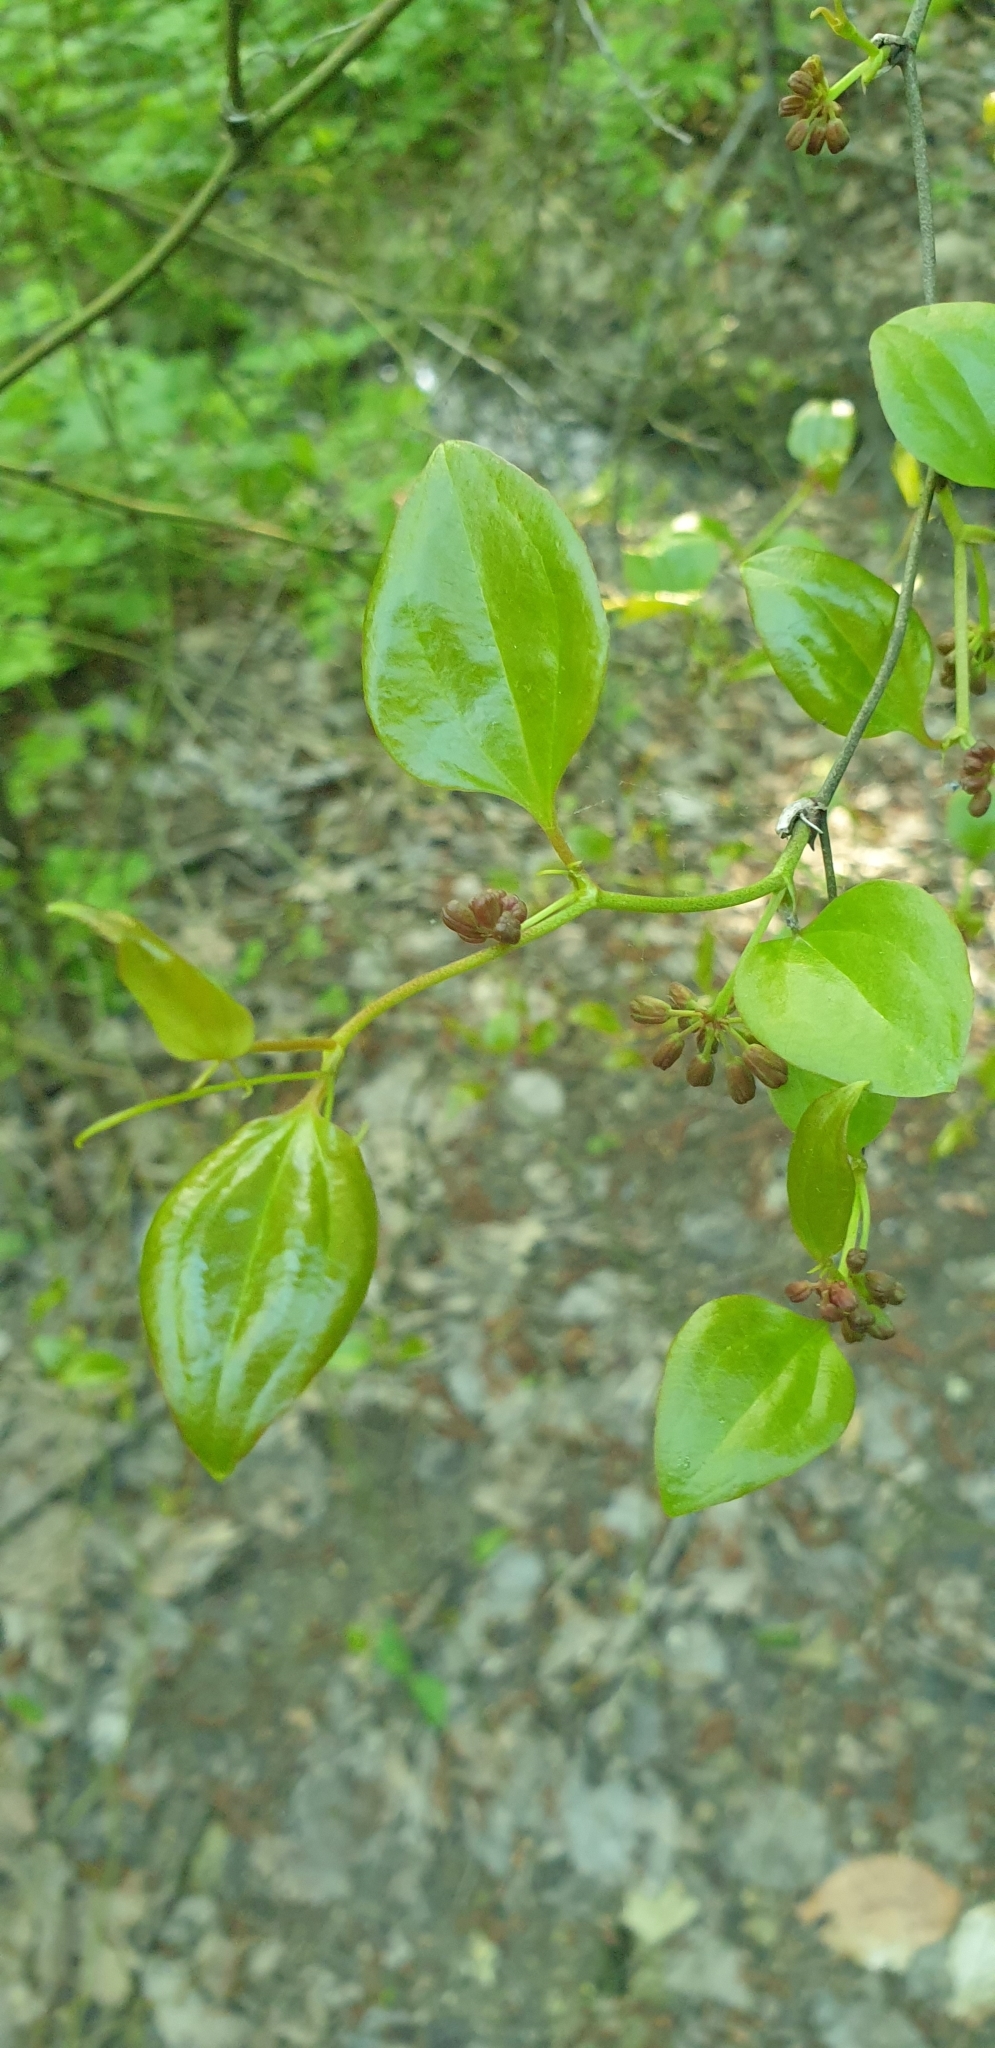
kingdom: Plantae
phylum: Tracheophyta
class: Liliopsida
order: Liliales
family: Smilacaceae
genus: Smilax
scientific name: Smilax excelsa
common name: Larger smilax
